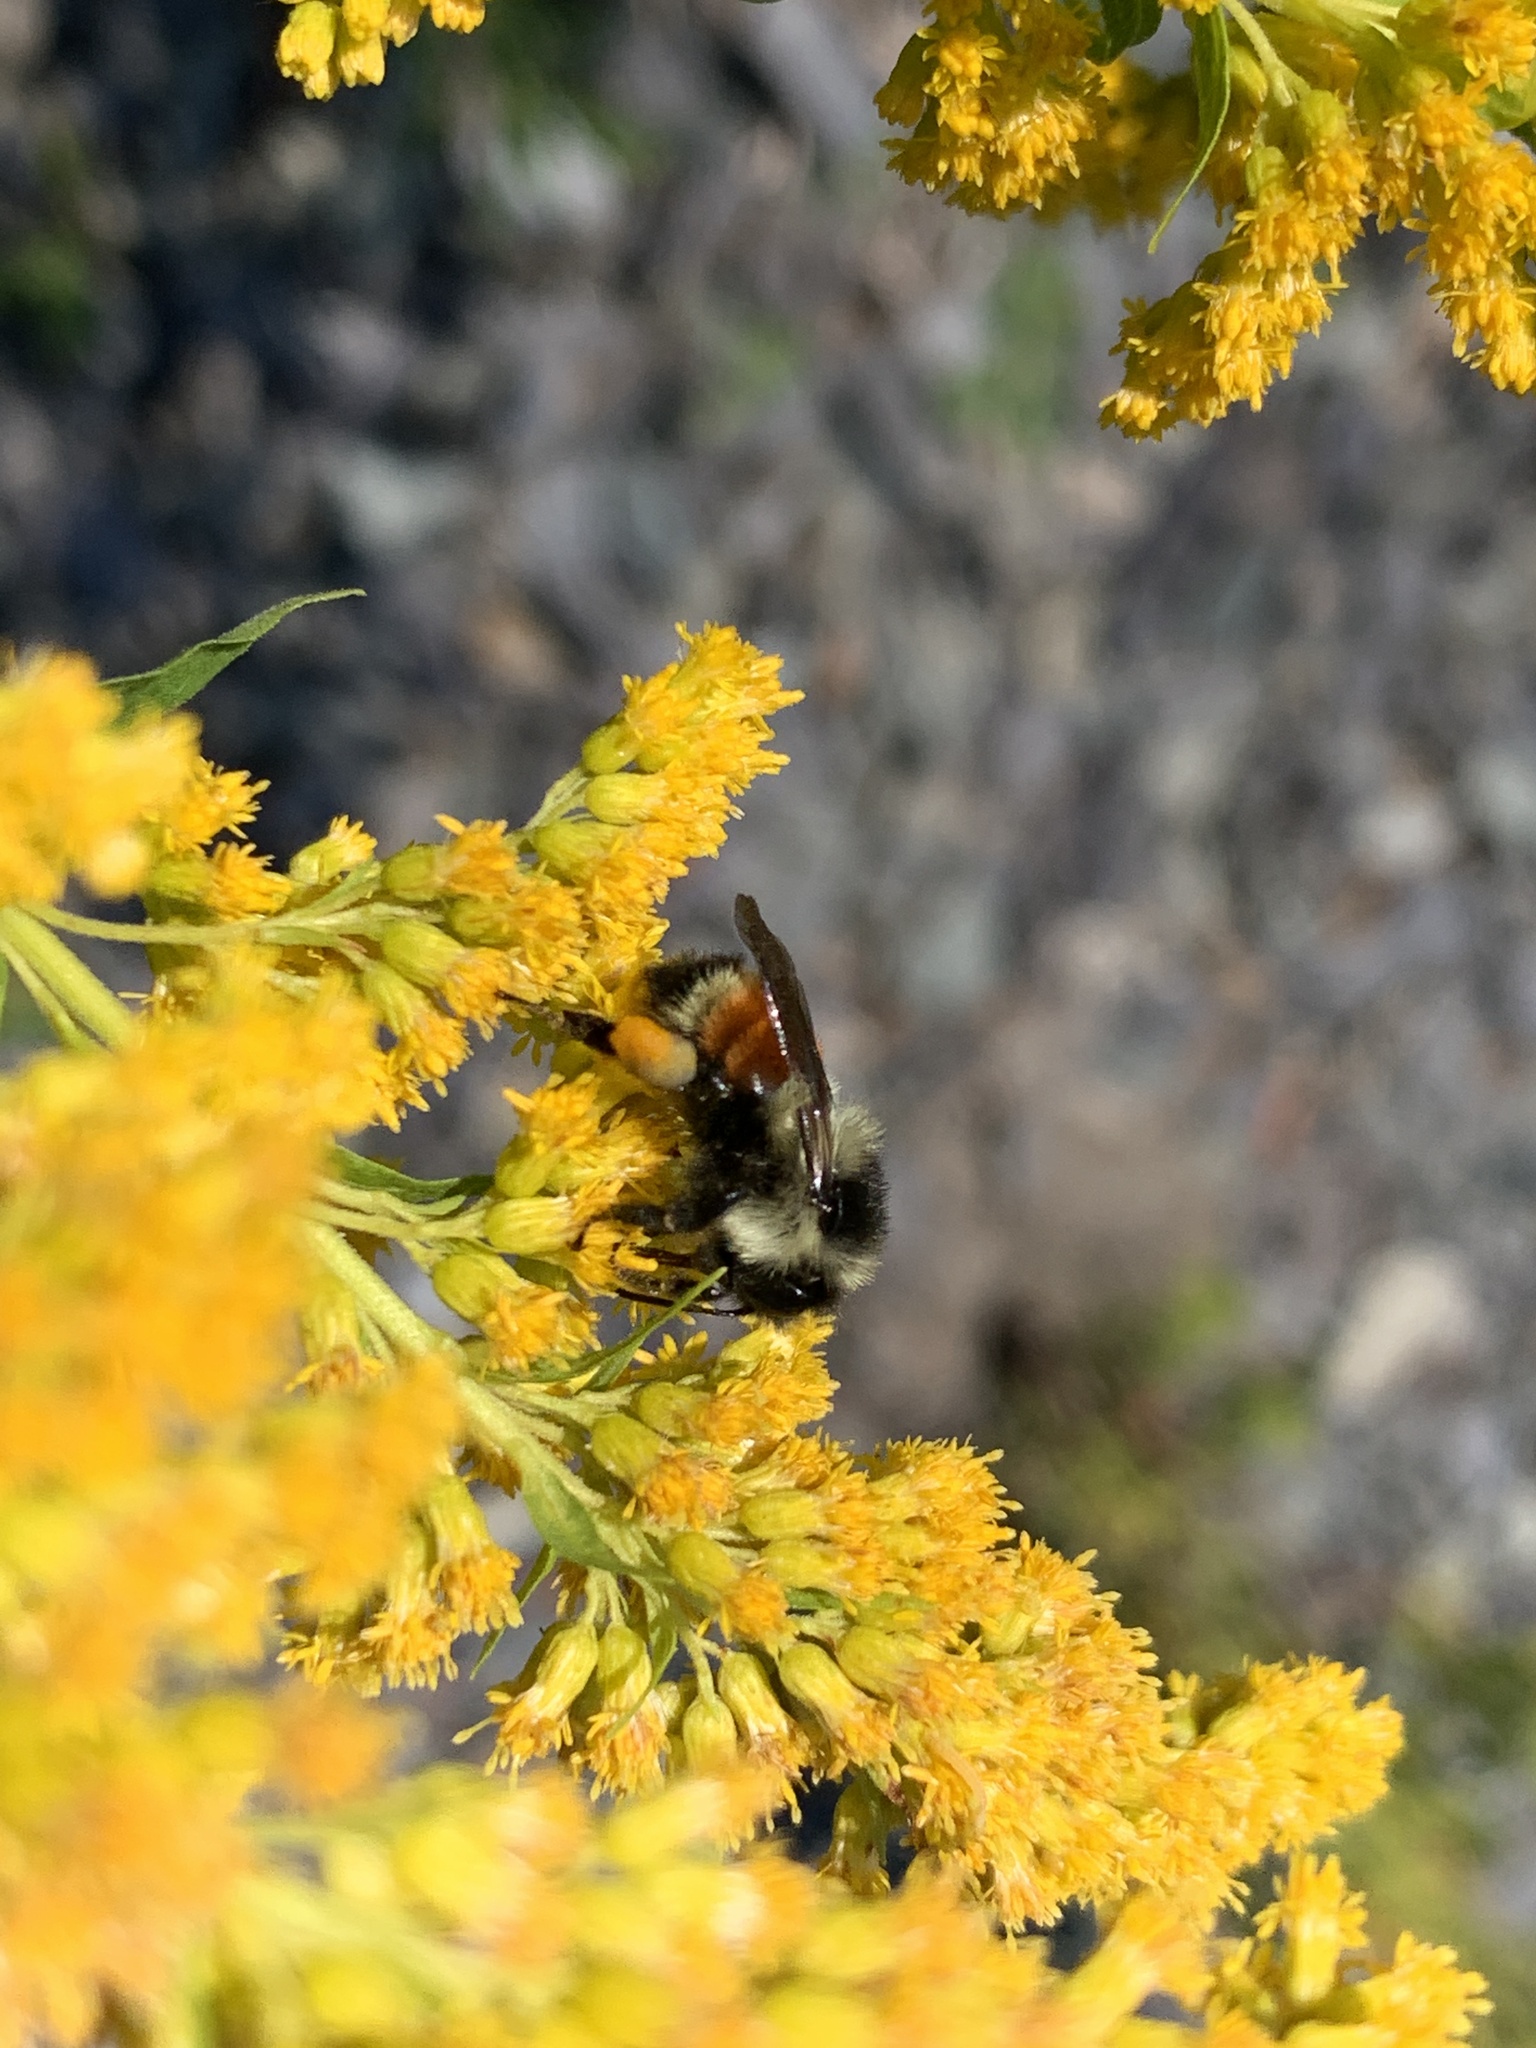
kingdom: Animalia
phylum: Arthropoda
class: Insecta
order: Hymenoptera
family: Apidae
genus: Bombus
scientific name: Bombus ternarius
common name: Tri-colored bumble bee
